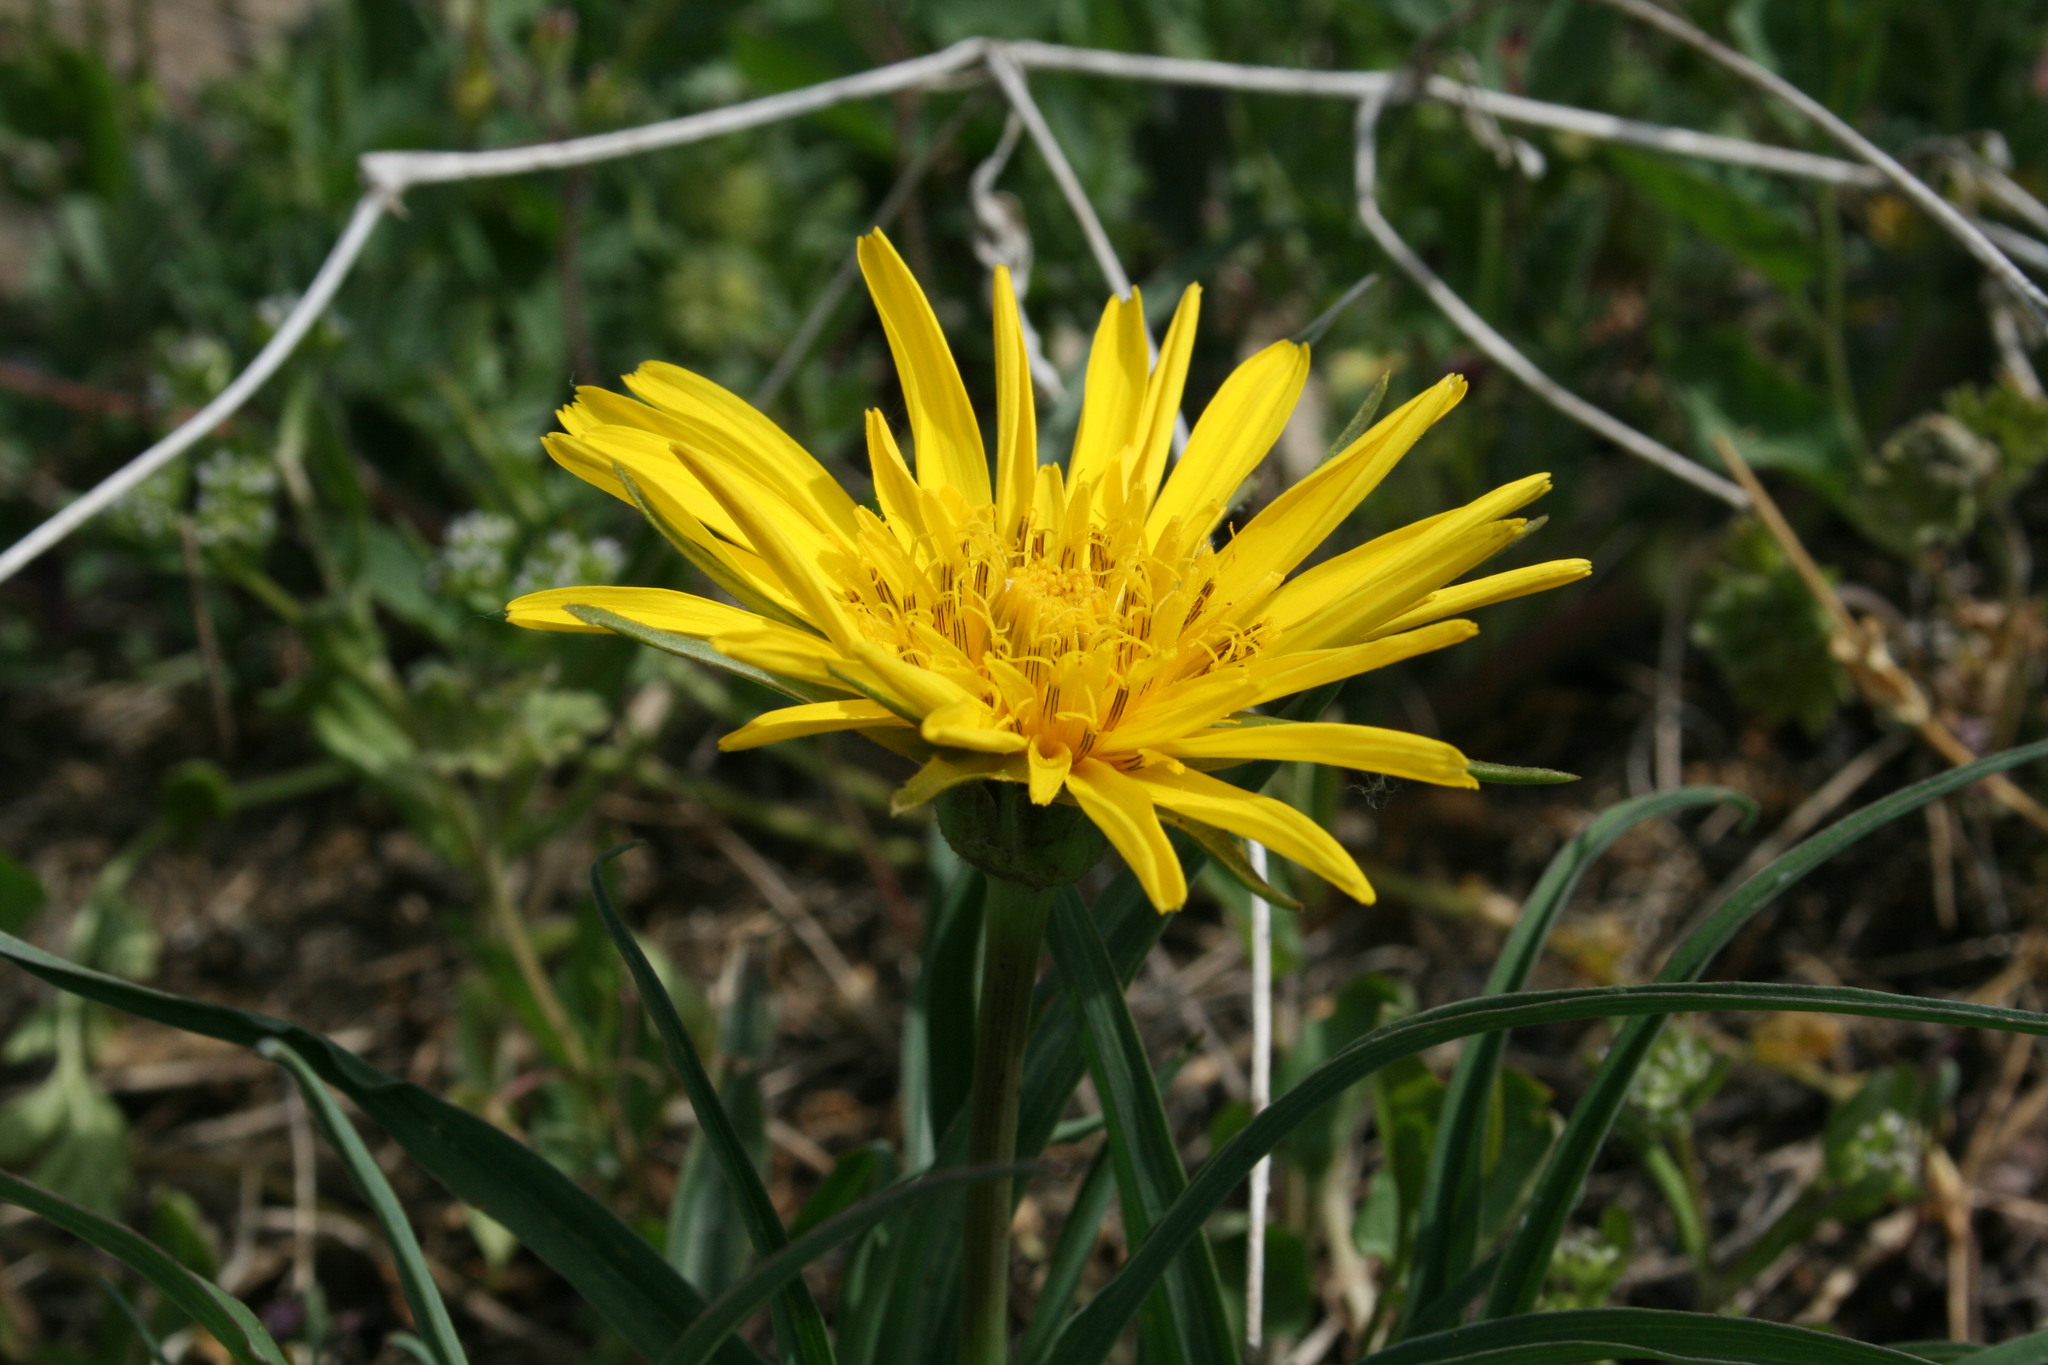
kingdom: Plantae
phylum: Tracheophyta
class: Magnoliopsida
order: Asterales
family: Asteraceae
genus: Tragopogon
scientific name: Tragopogon orientalis
